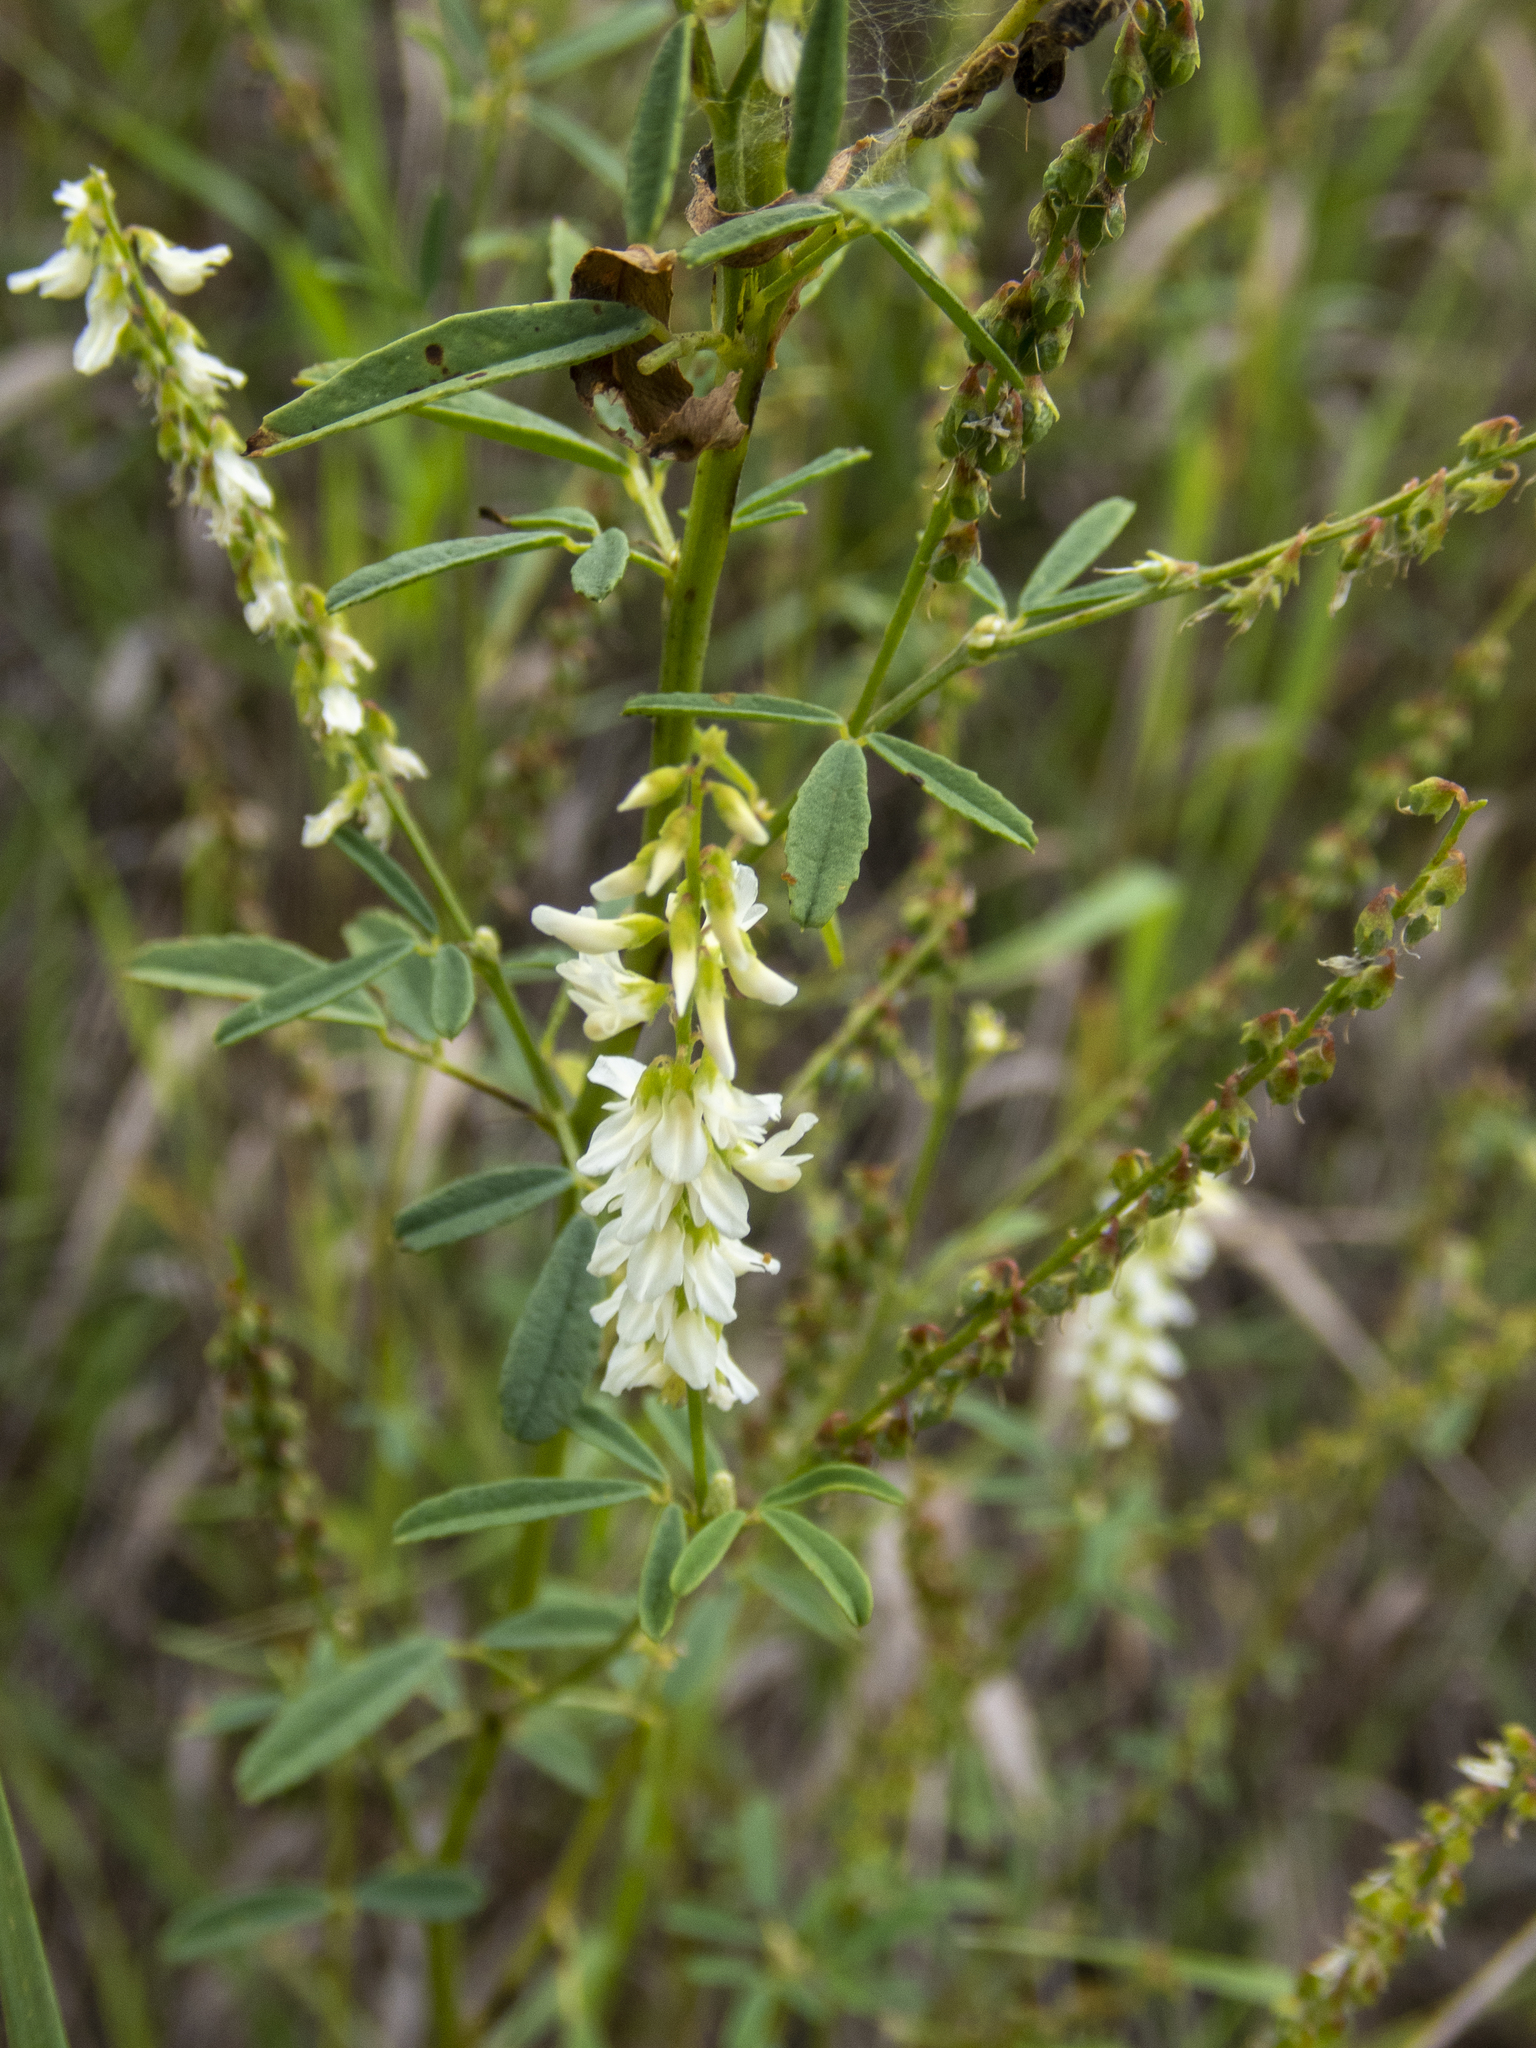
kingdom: Plantae
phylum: Tracheophyta
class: Magnoliopsida
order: Fabales
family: Fabaceae
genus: Melilotus
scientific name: Melilotus albus
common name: White melilot
